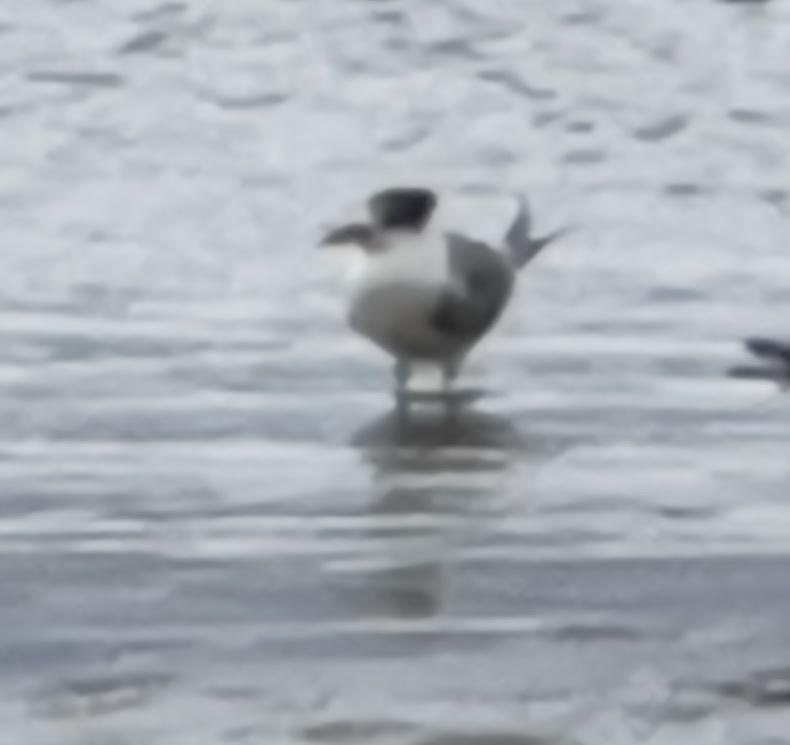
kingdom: Animalia
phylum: Chordata
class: Aves
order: Charadriiformes
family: Laridae
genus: Thalasseus
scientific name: Thalasseus bergii
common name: Greater crested tern
